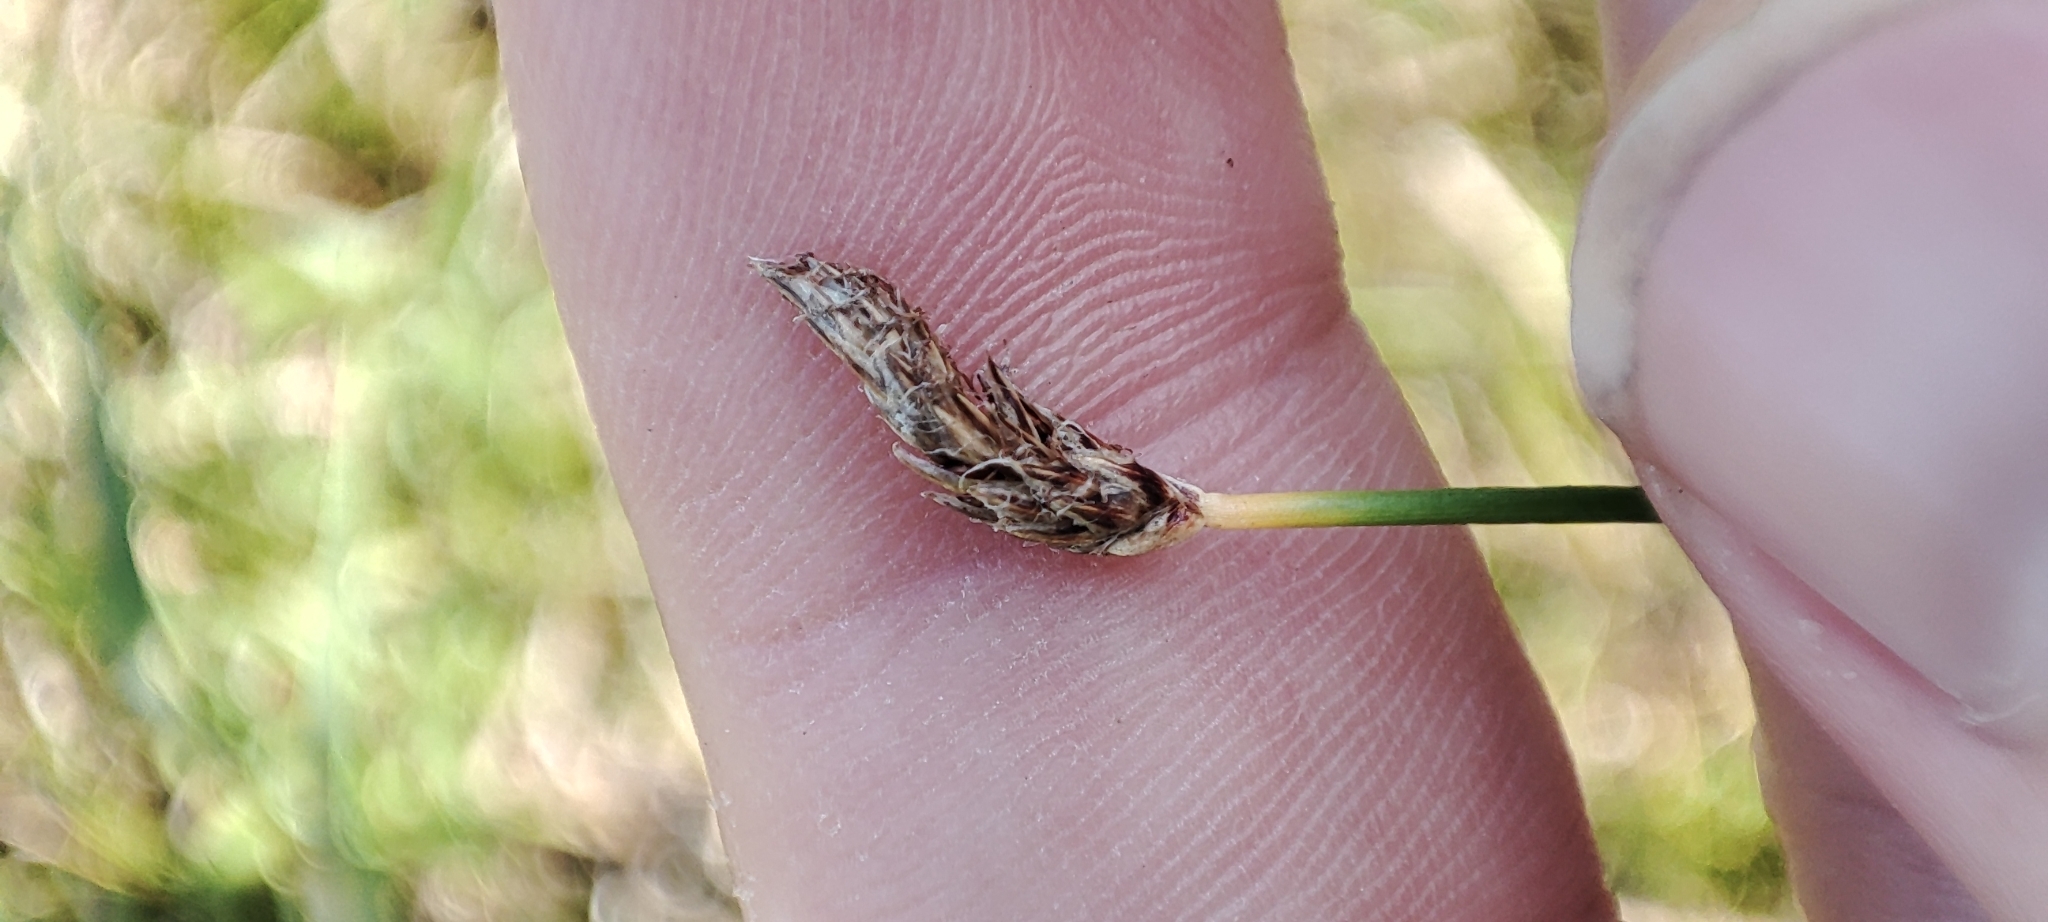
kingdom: Plantae
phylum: Tracheophyta
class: Liliopsida
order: Poales
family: Cyperaceae
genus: Eleocharis
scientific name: Eleocharis palustris
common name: Common spike-rush
